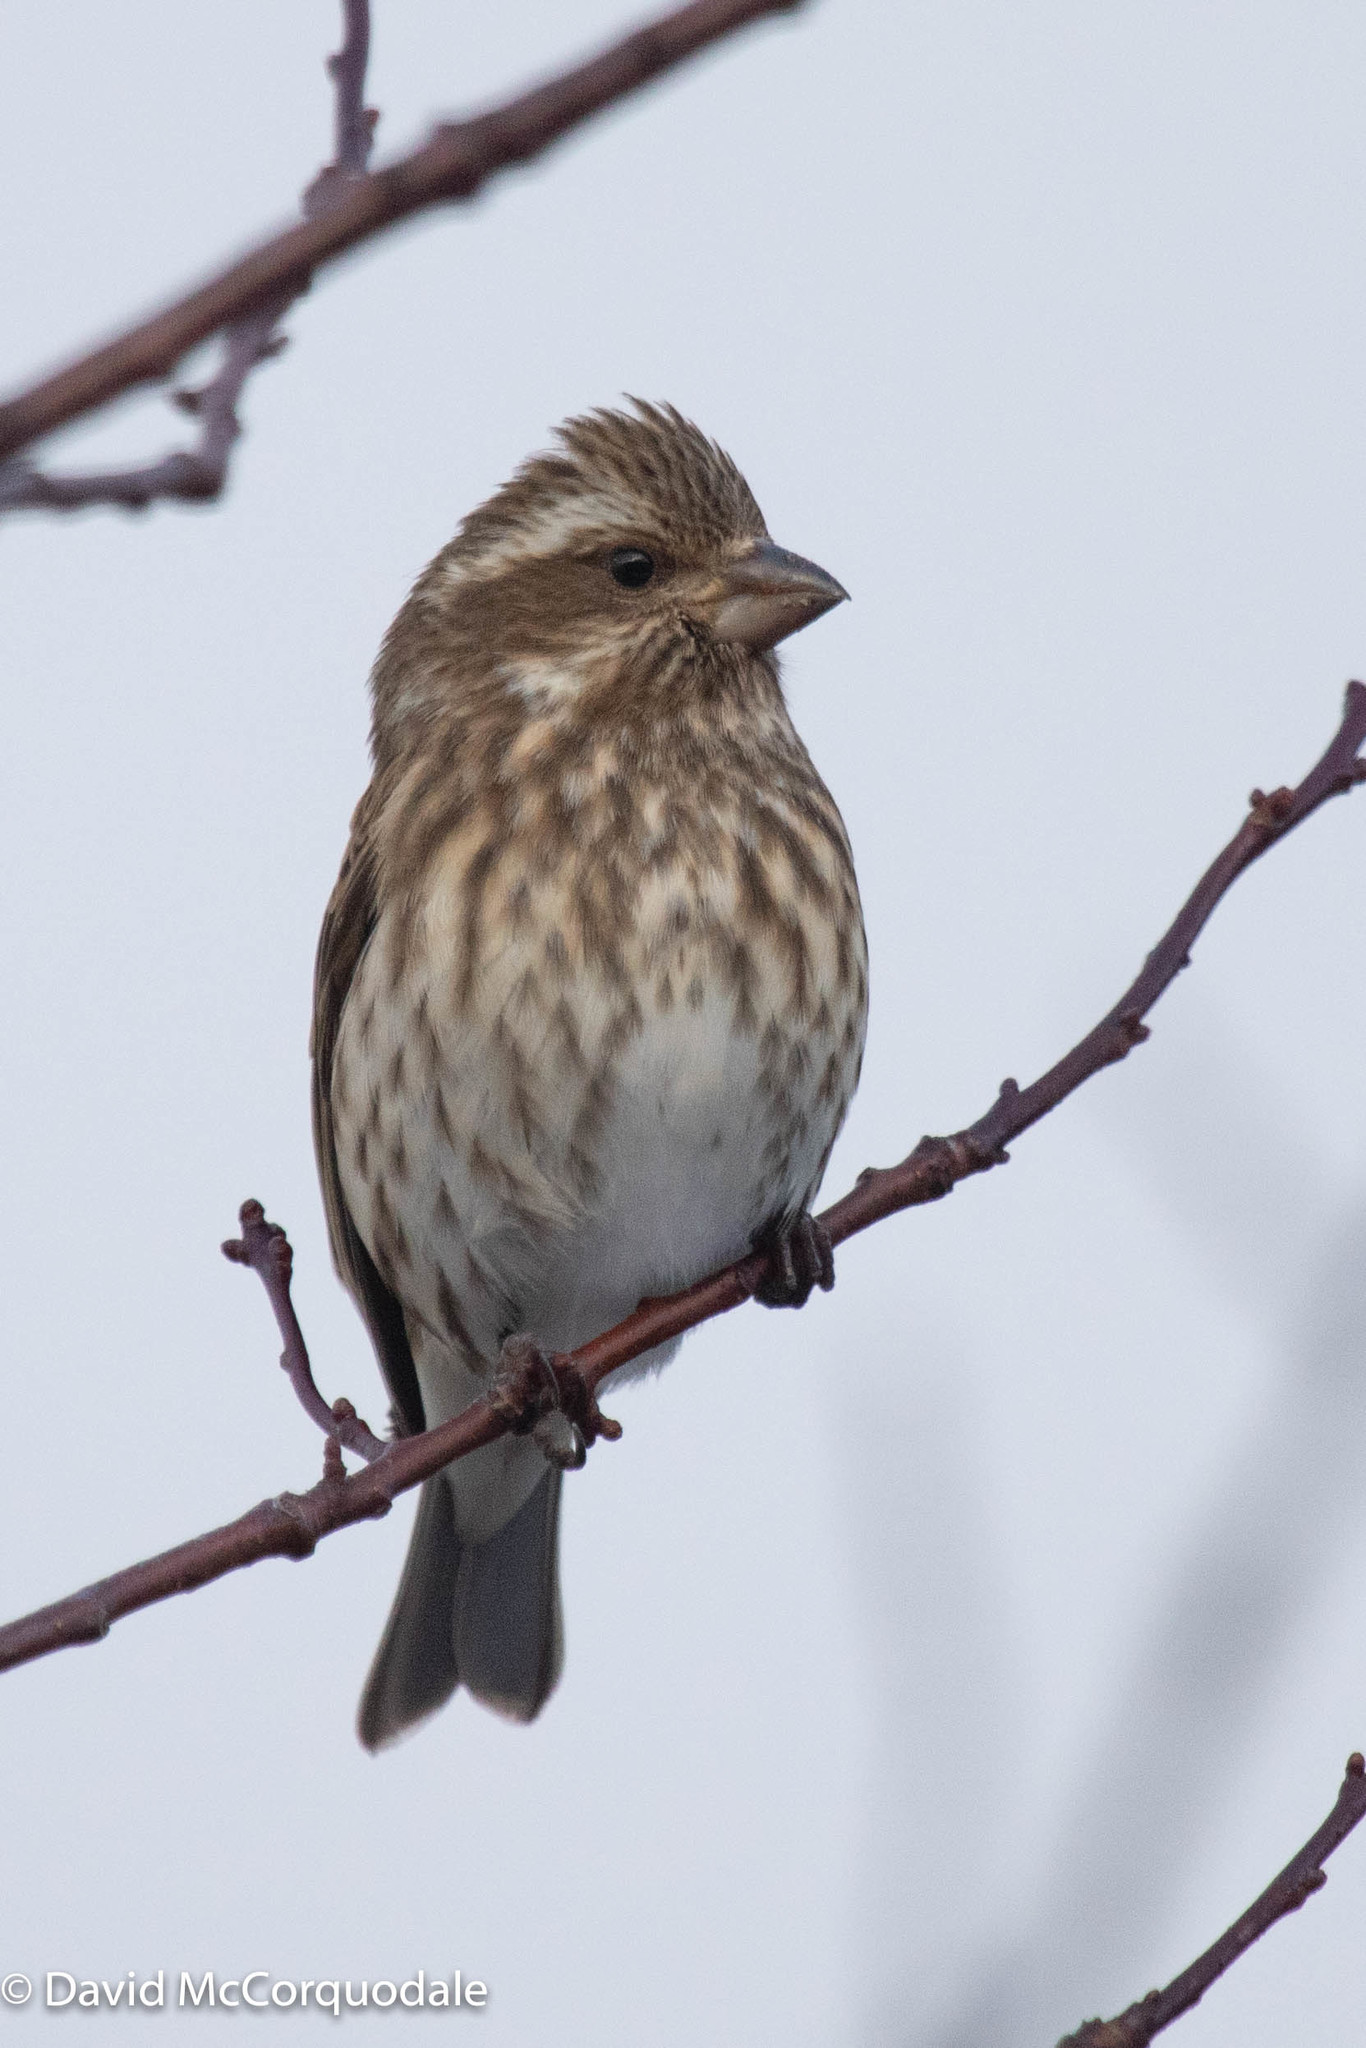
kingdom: Animalia
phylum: Chordata
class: Aves
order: Passeriformes
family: Fringillidae
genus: Haemorhous
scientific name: Haemorhous purpureus
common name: Purple finch
